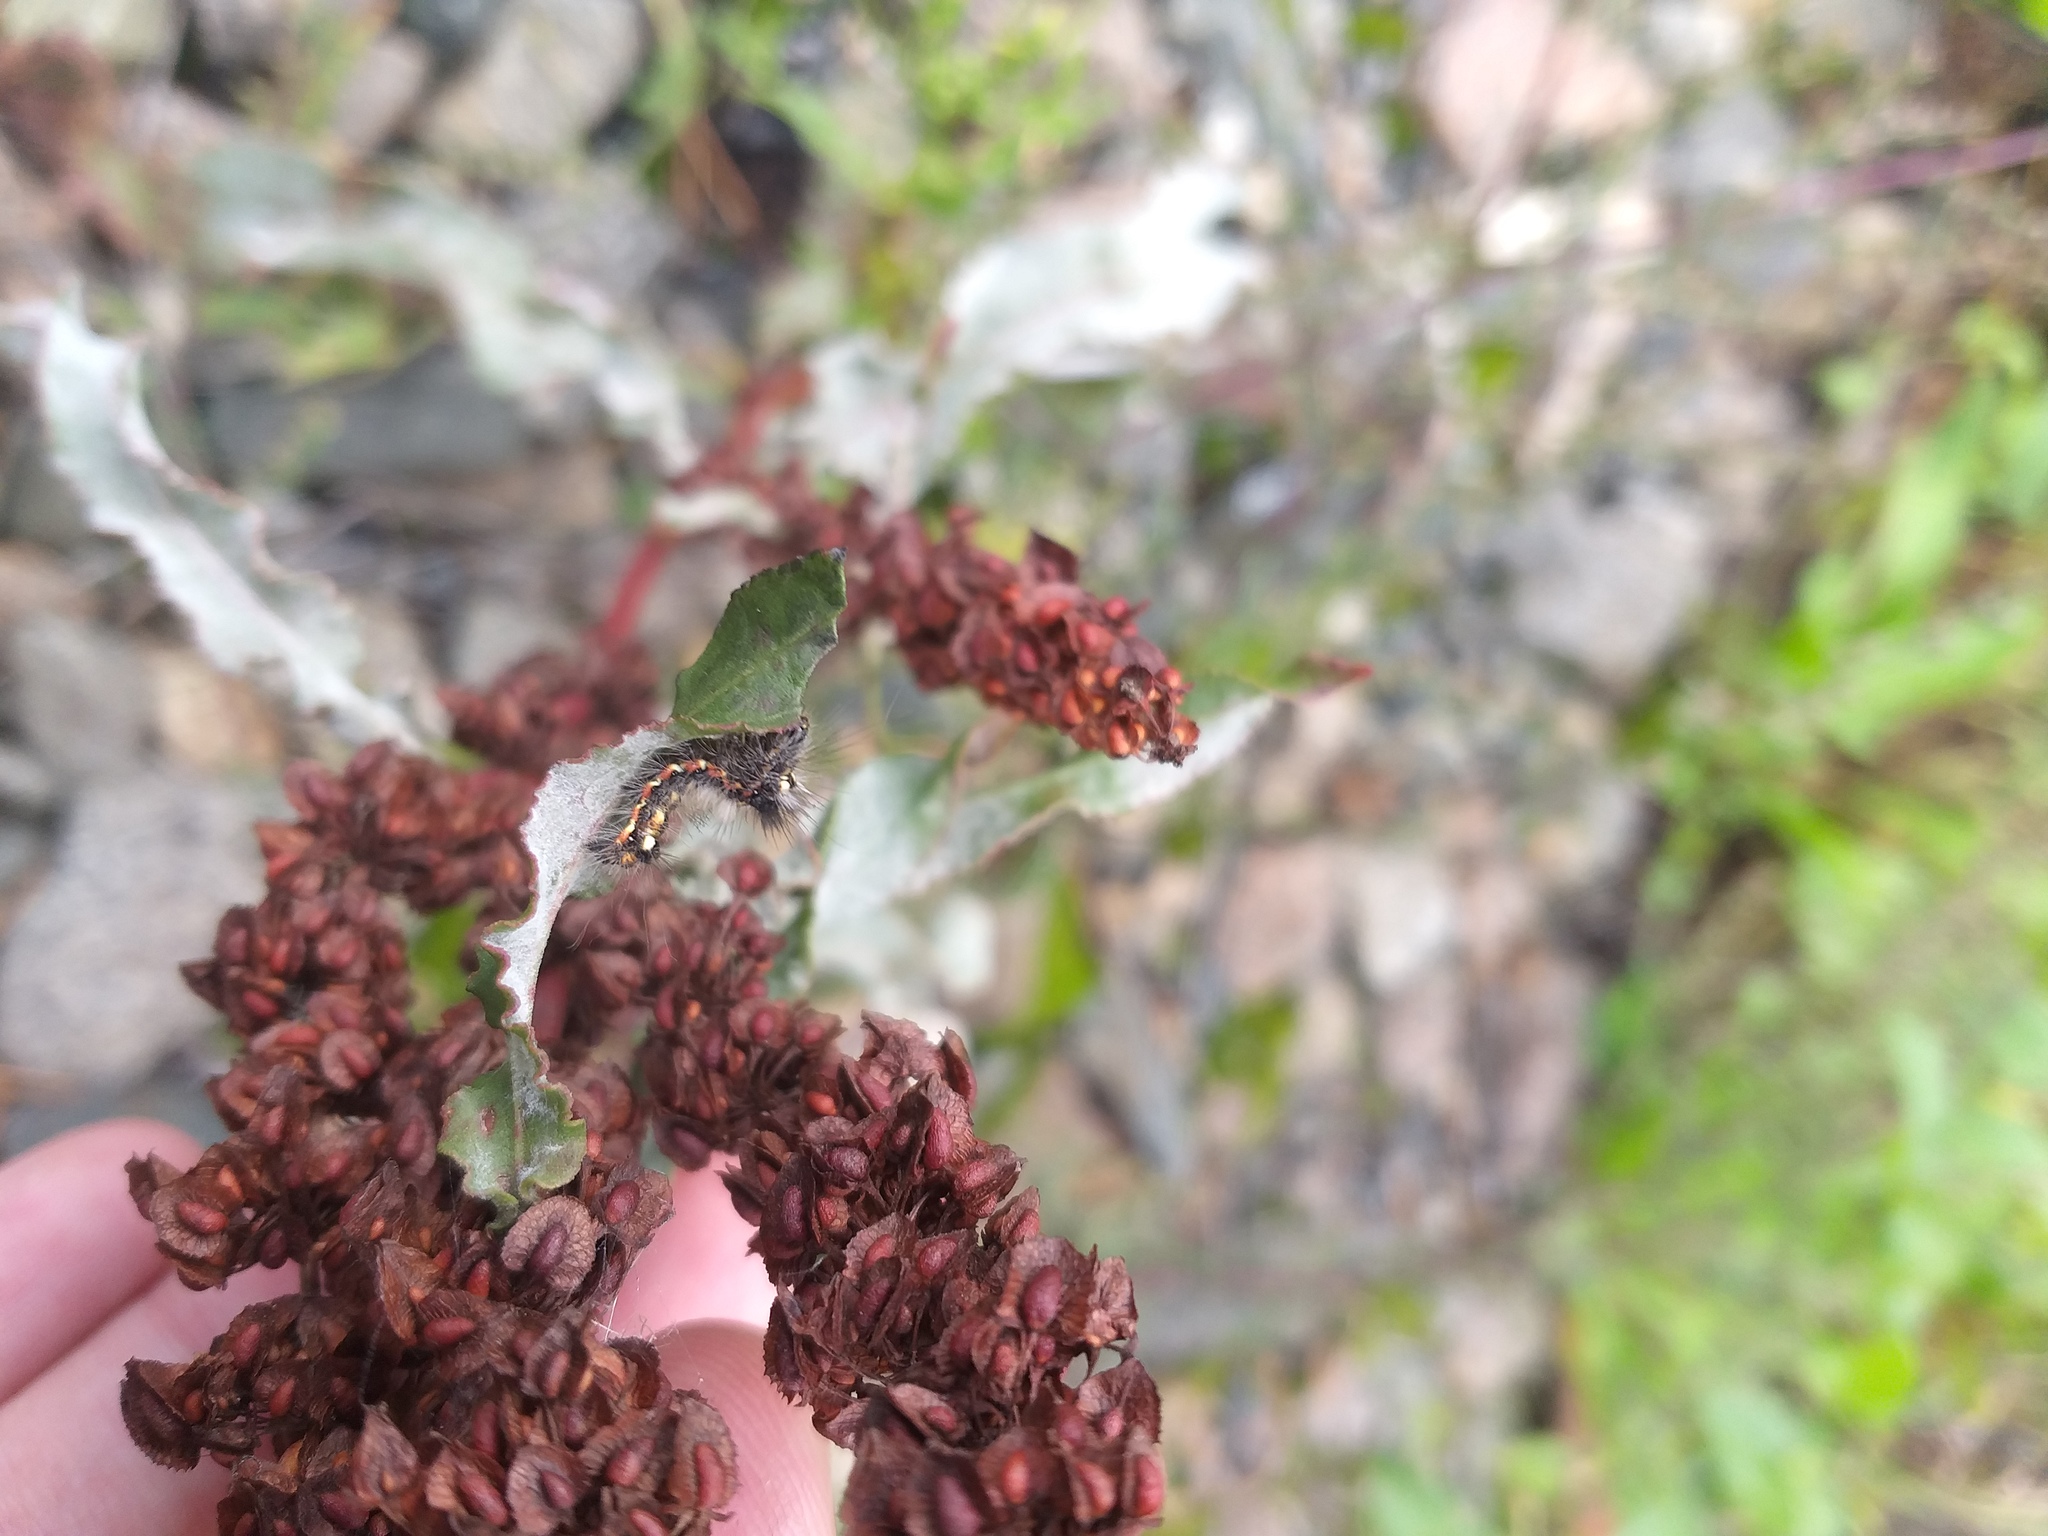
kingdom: Animalia
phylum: Arthropoda
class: Insecta
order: Lepidoptera
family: Noctuidae
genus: Acronicta
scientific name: Acronicta rumicis
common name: Knot grass
